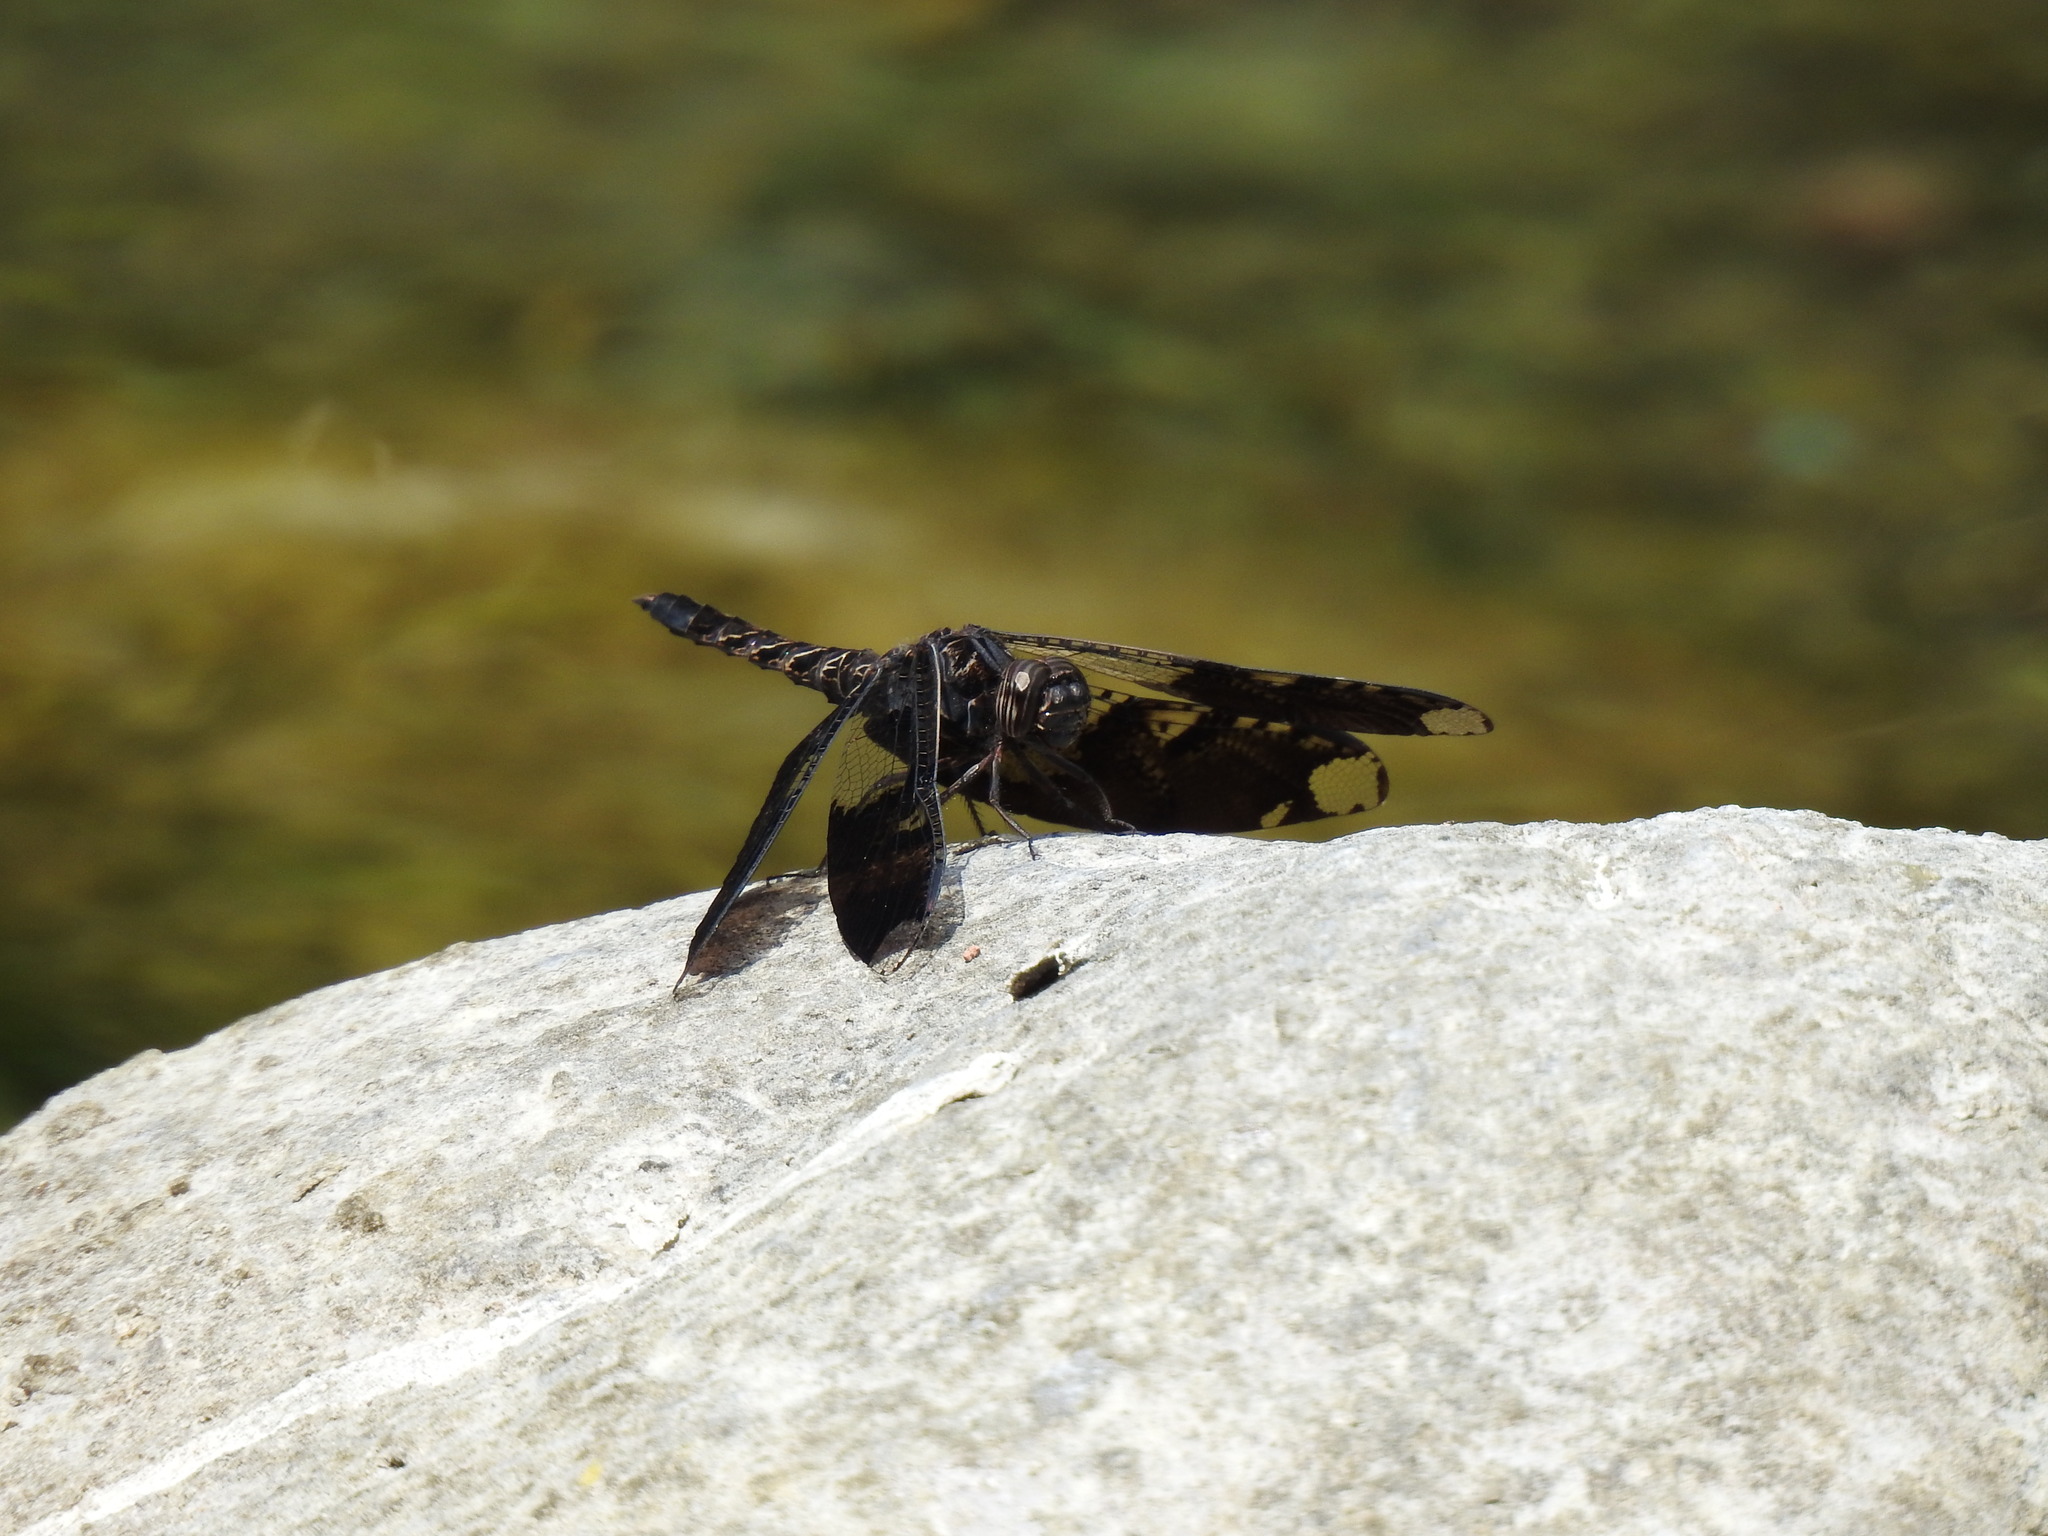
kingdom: Animalia
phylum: Arthropoda
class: Insecta
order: Odonata
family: Libellulidae
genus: Pseudoleon
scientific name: Pseudoleon superbus
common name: Filigree skimmer
